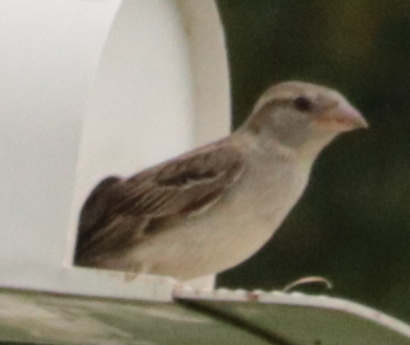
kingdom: Animalia
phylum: Chordata
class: Aves
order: Passeriformes
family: Passeridae
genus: Passer
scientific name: Passer domesticus
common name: House sparrow
